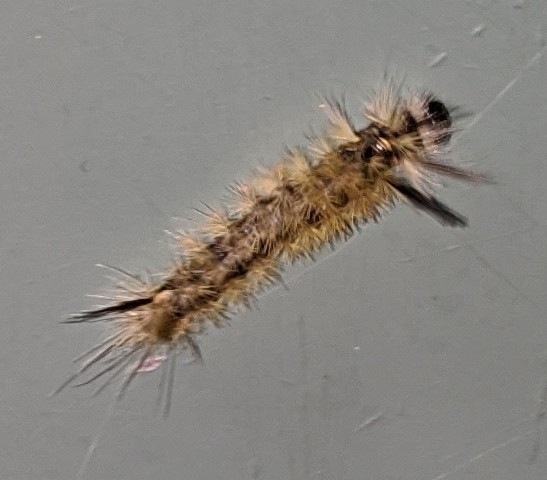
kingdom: Animalia
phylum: Arthropoda
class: Insecta
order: Lepidoptera
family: Erebidae
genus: Halysidota
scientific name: Halysidota tessellaris
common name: Banded tussock moth
